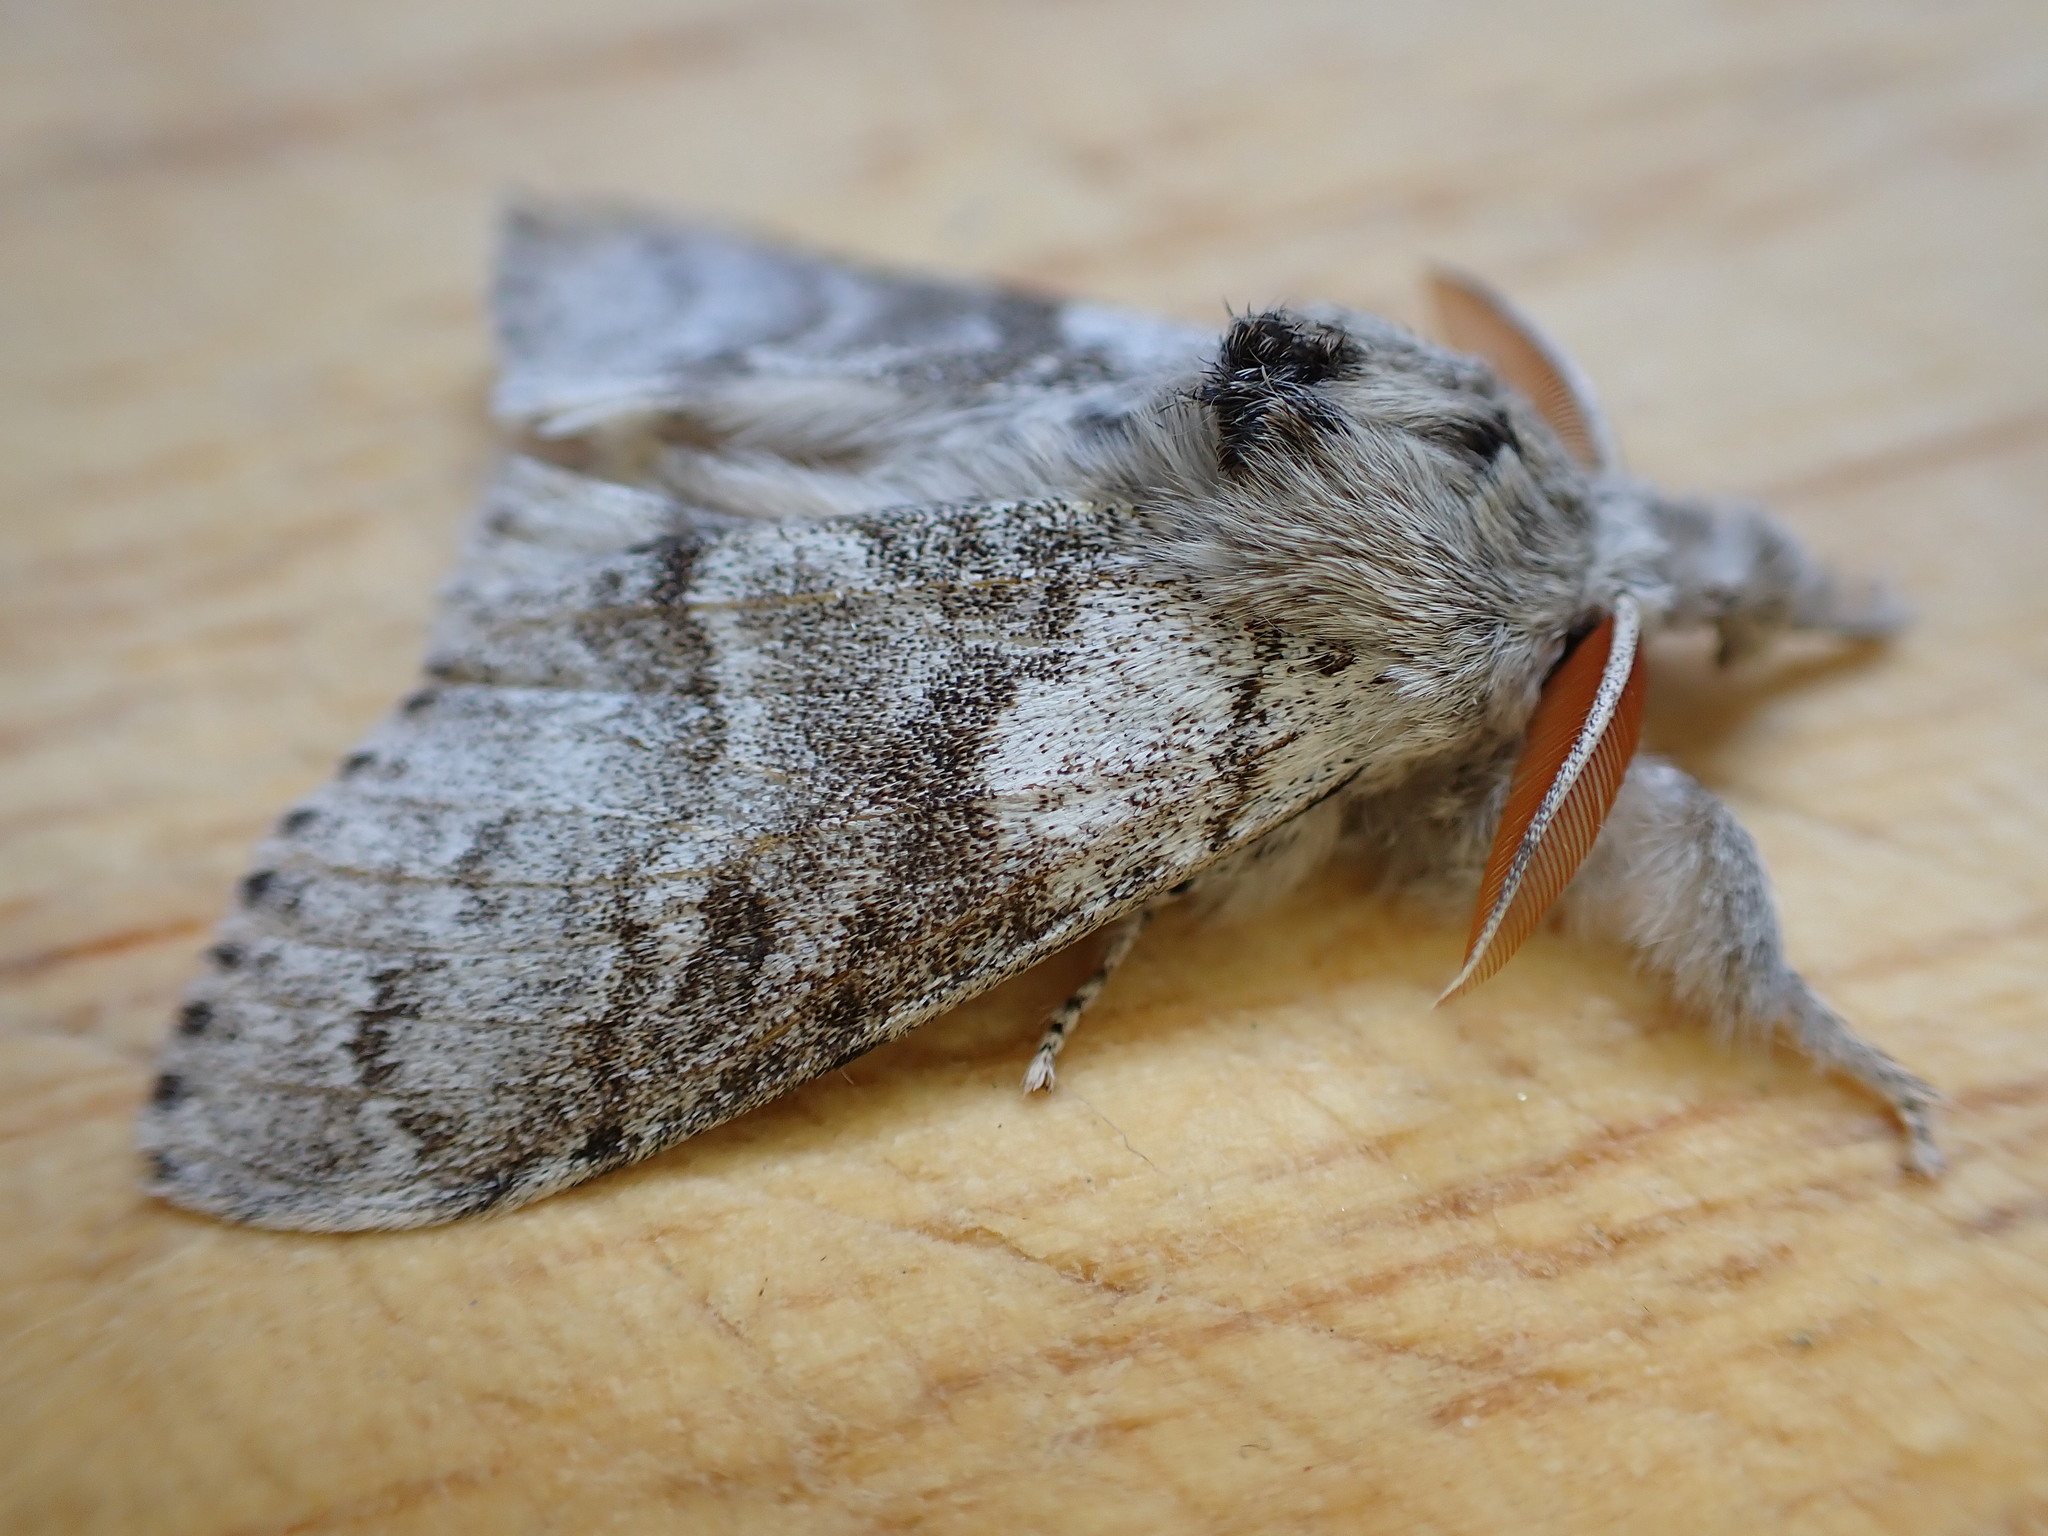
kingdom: Animalia
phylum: Arthropoda
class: Insecta
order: Lepidoptera
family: Erebidae
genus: Calliteara
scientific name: Calliteara pudibunda
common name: Pale tussock
